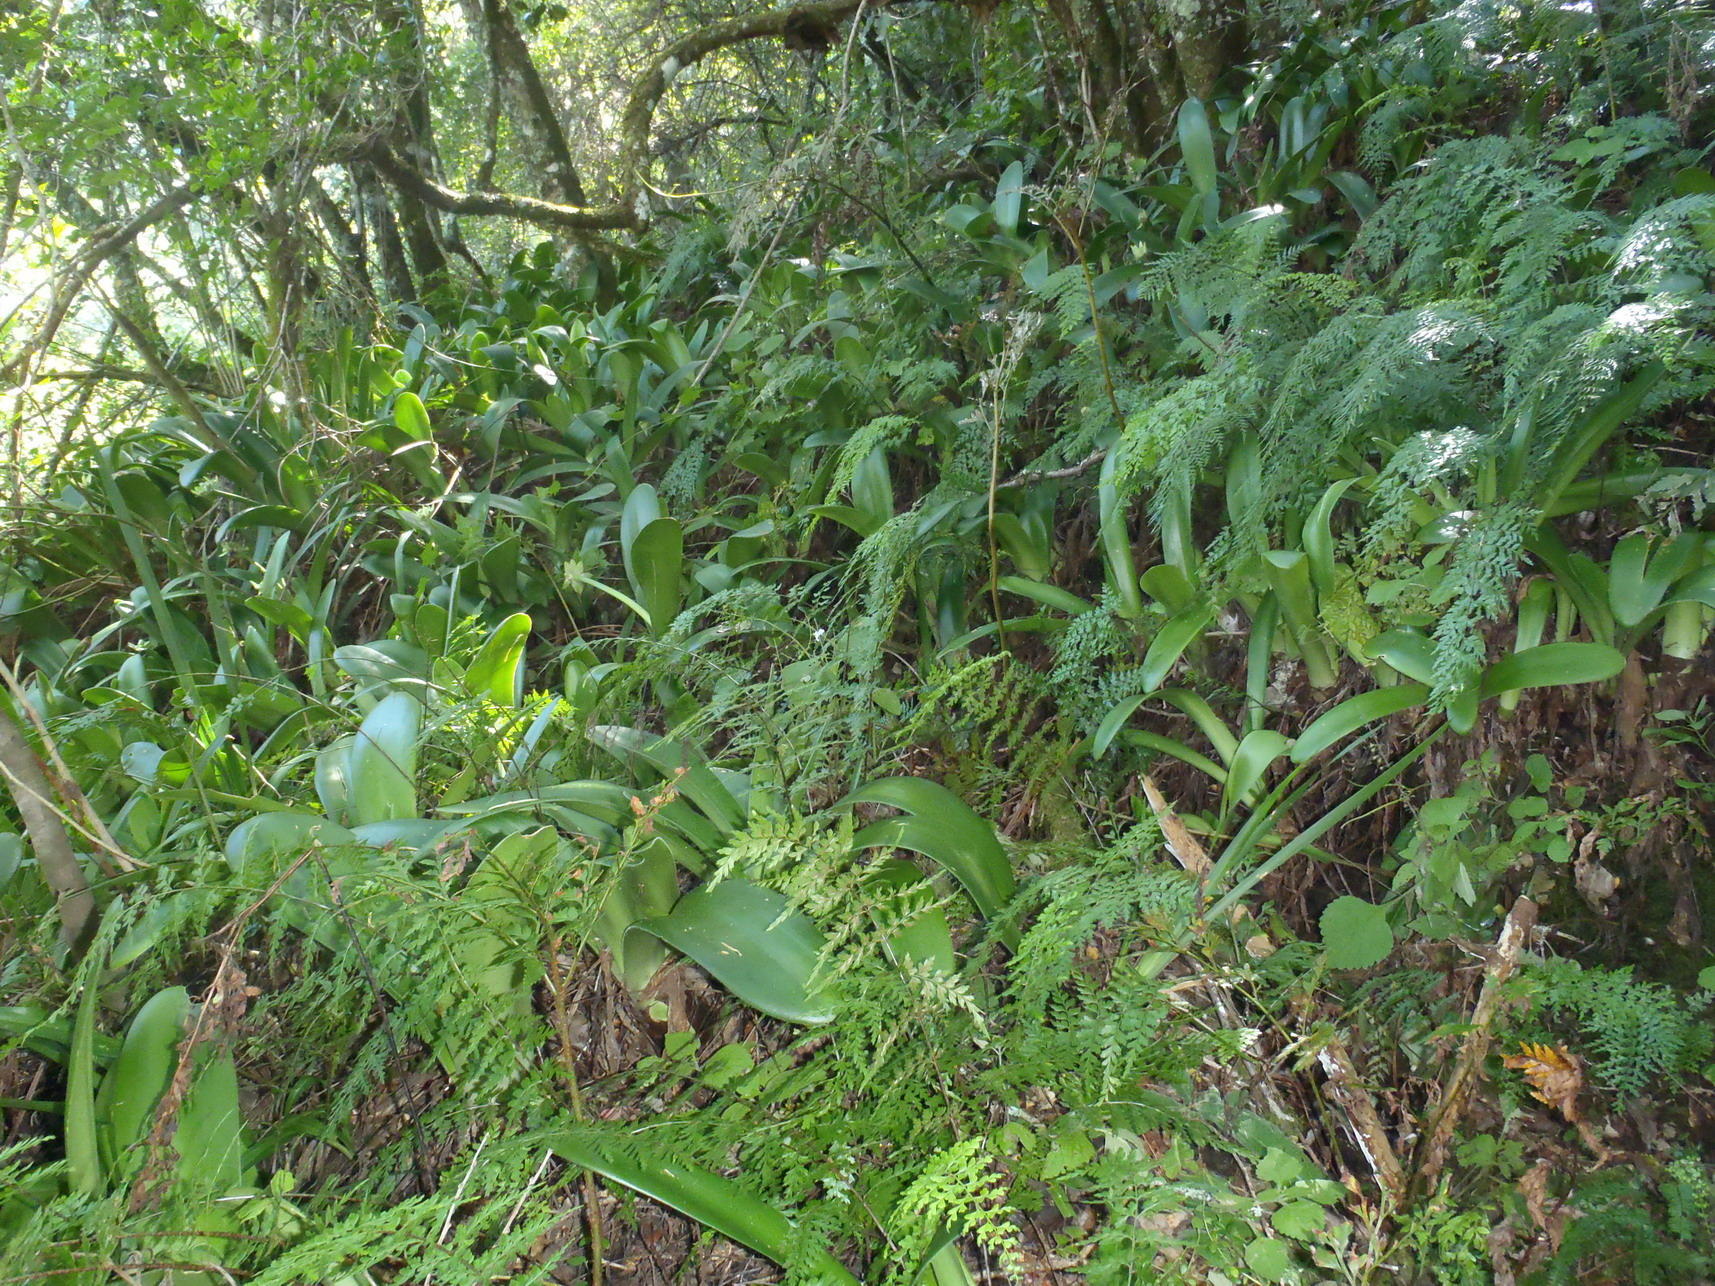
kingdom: Plantae
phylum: Tracheophyta
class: Liliopsida
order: Asparagales
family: Amaryllidaceae
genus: Haemanthus
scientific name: Haemanthus albiflos
